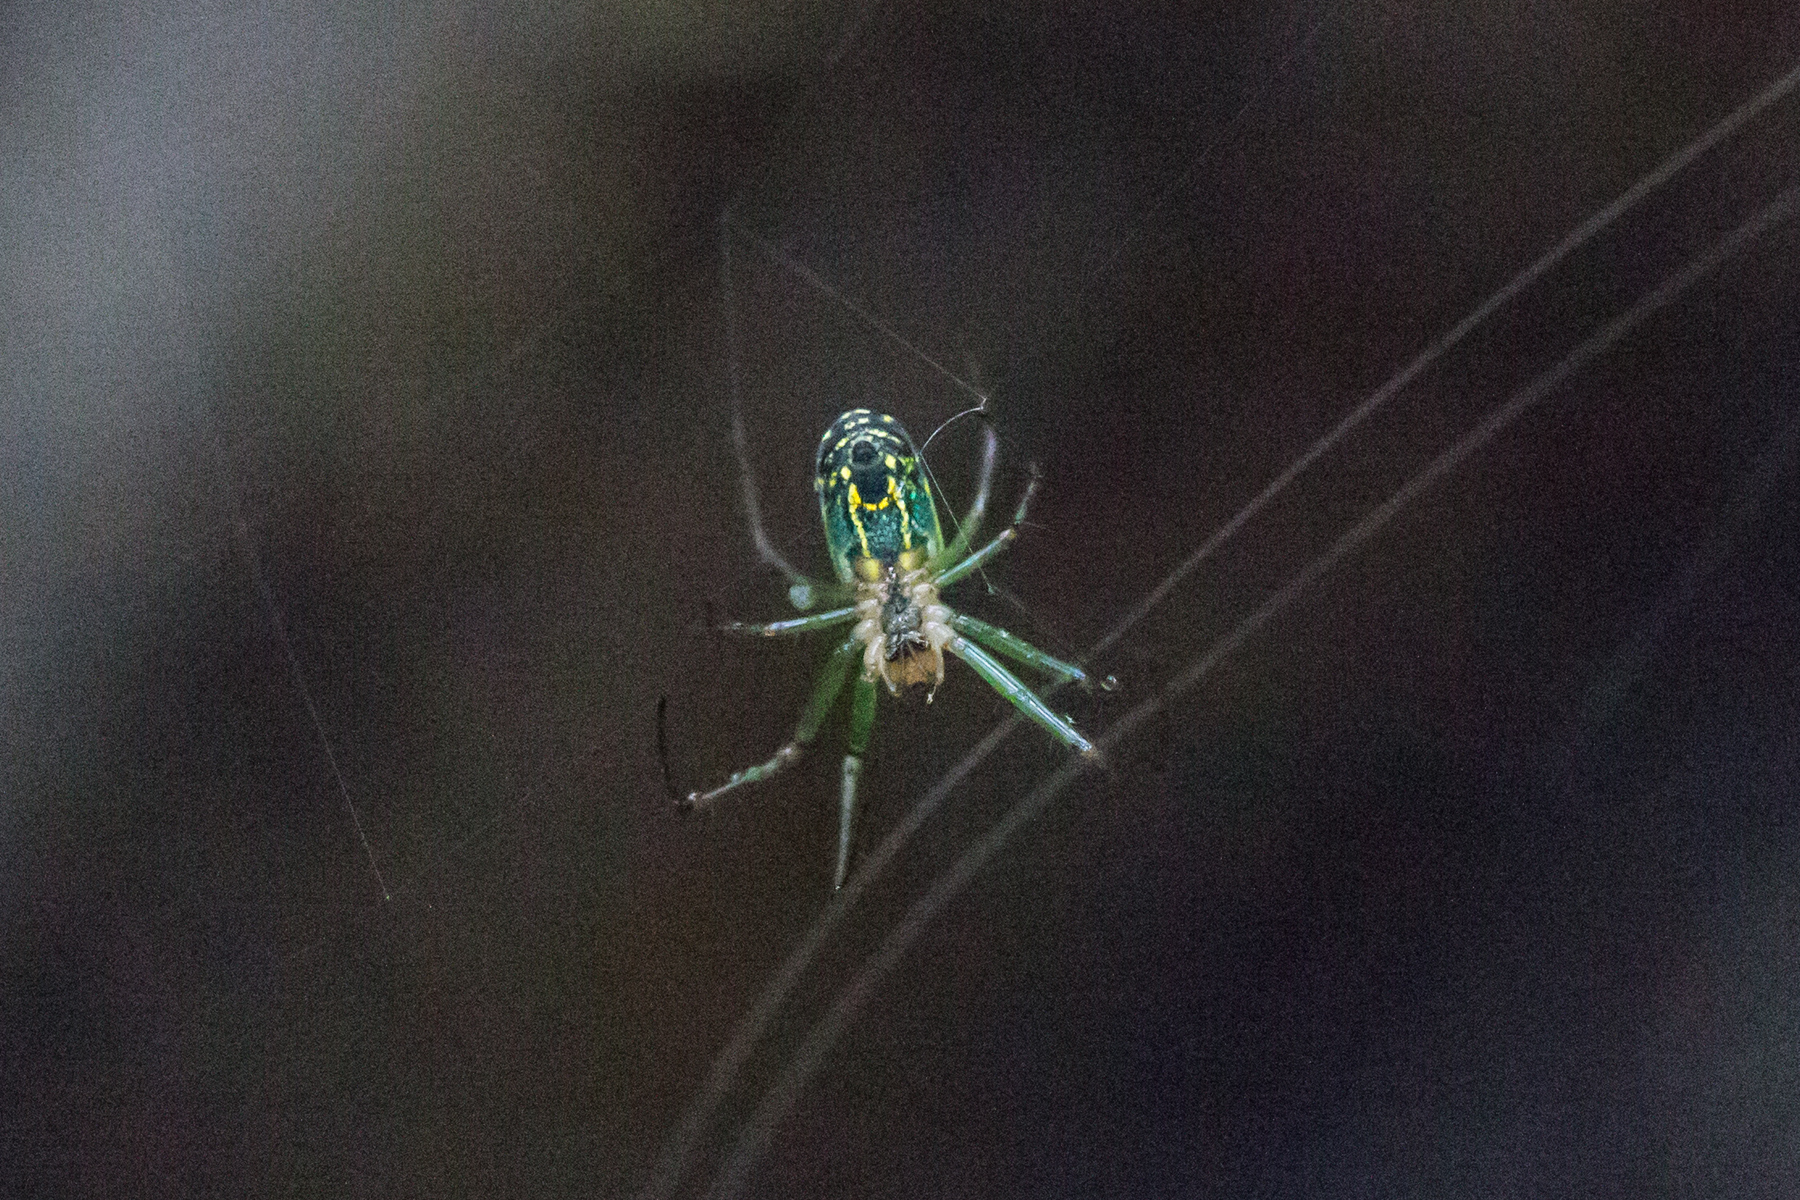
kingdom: Animalia
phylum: Arthropoda
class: Arachnida
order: Araneae
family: Tetragnathidae
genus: Leucauge
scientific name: Leucauge venusta
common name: Longjawed orb weavers
